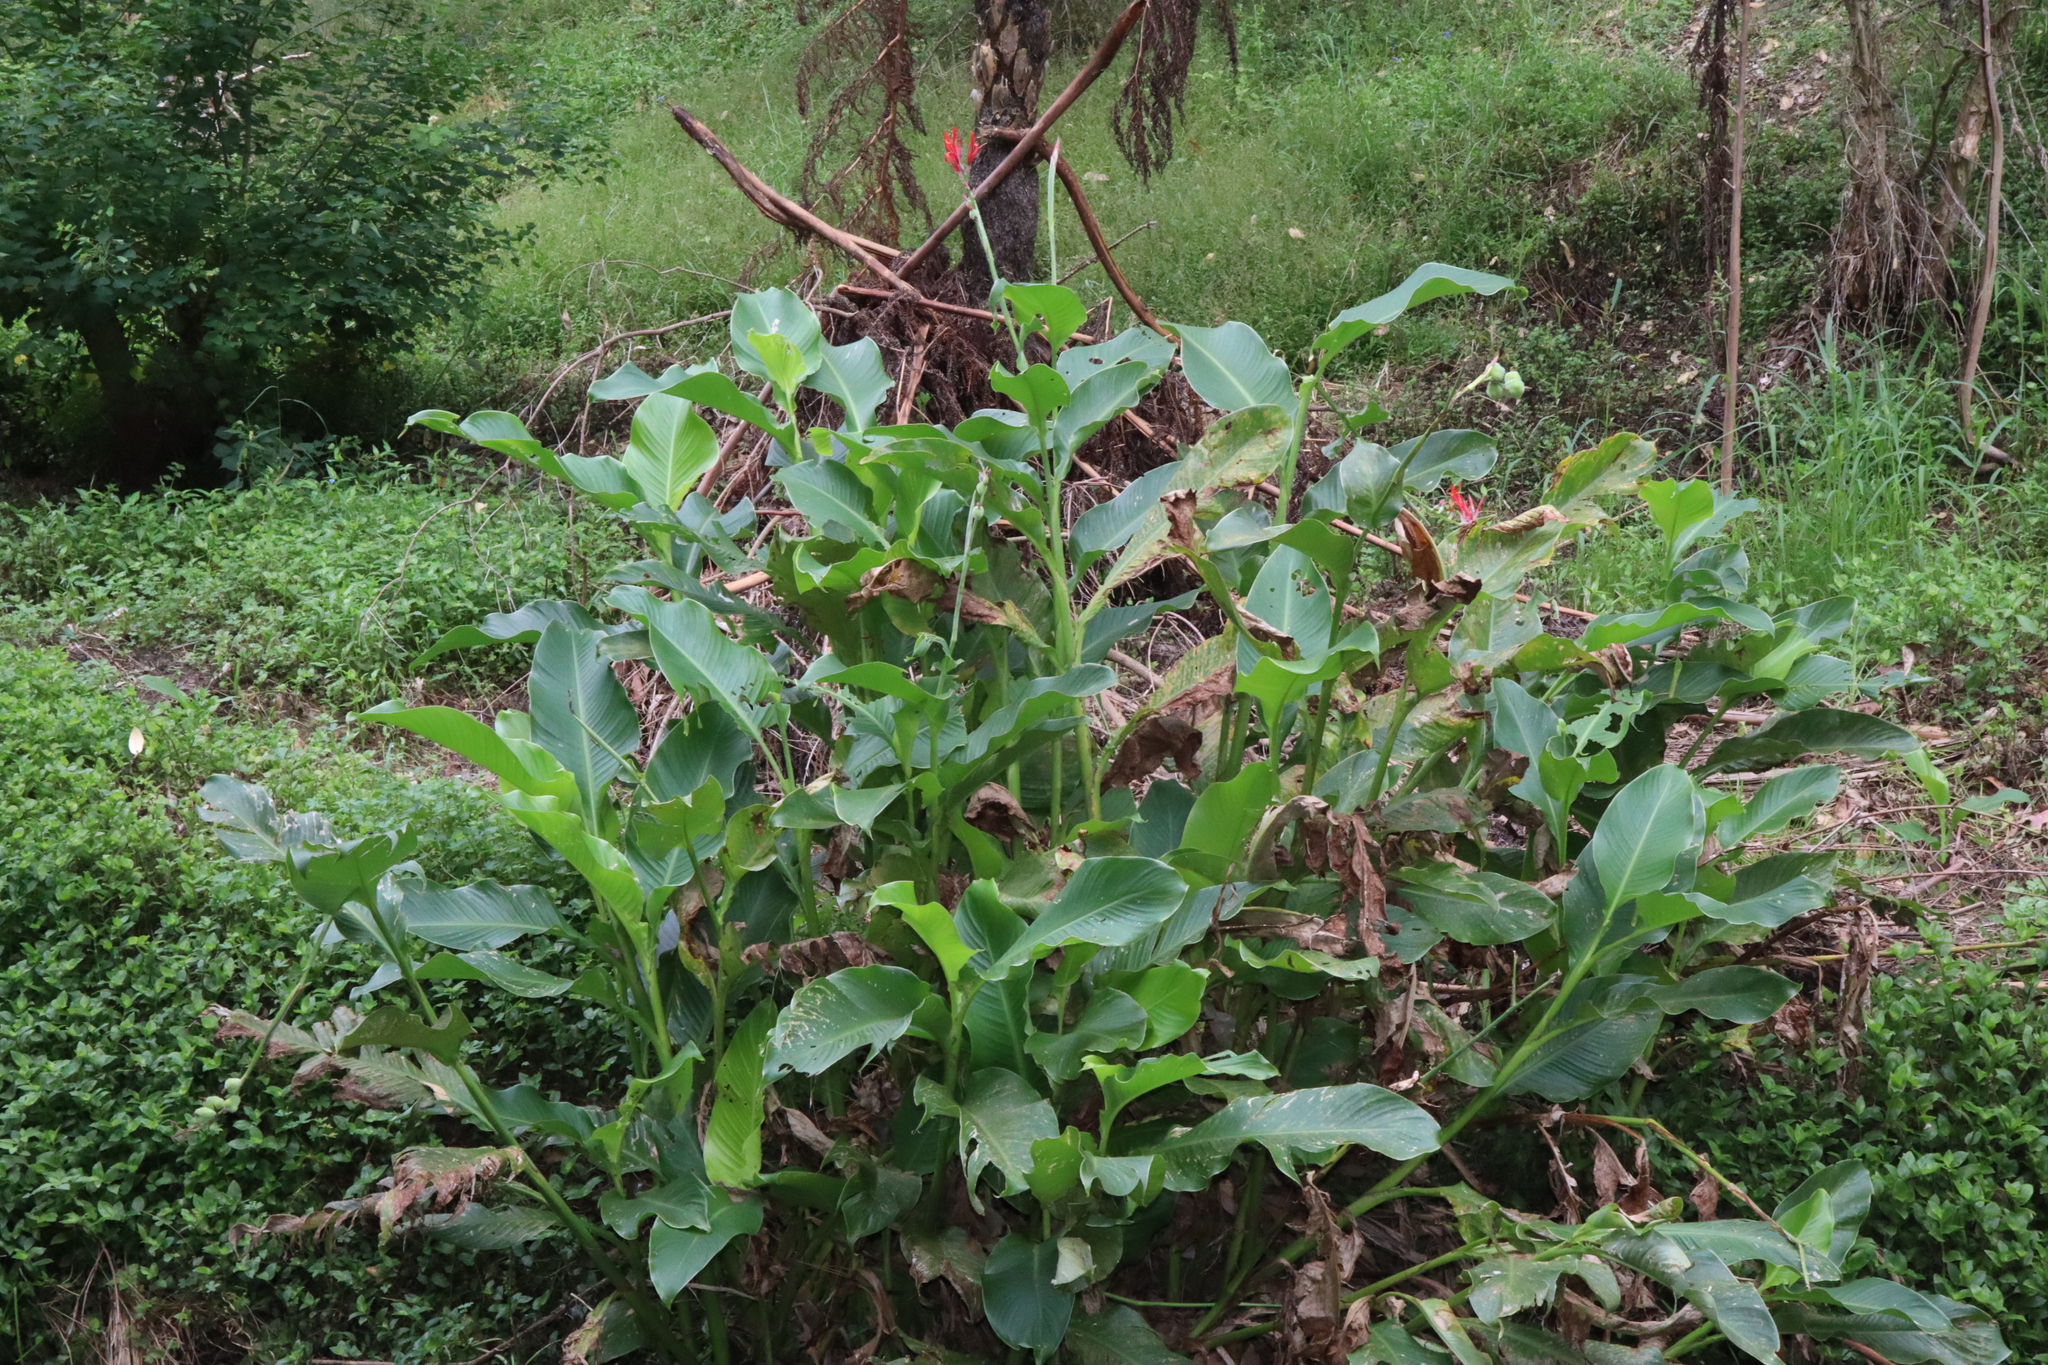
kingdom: Plantae
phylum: Tracheophyta
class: Liliopsida
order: Zingiberales
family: Cannaceae
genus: Canna
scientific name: Canna indica
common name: Indian shot
